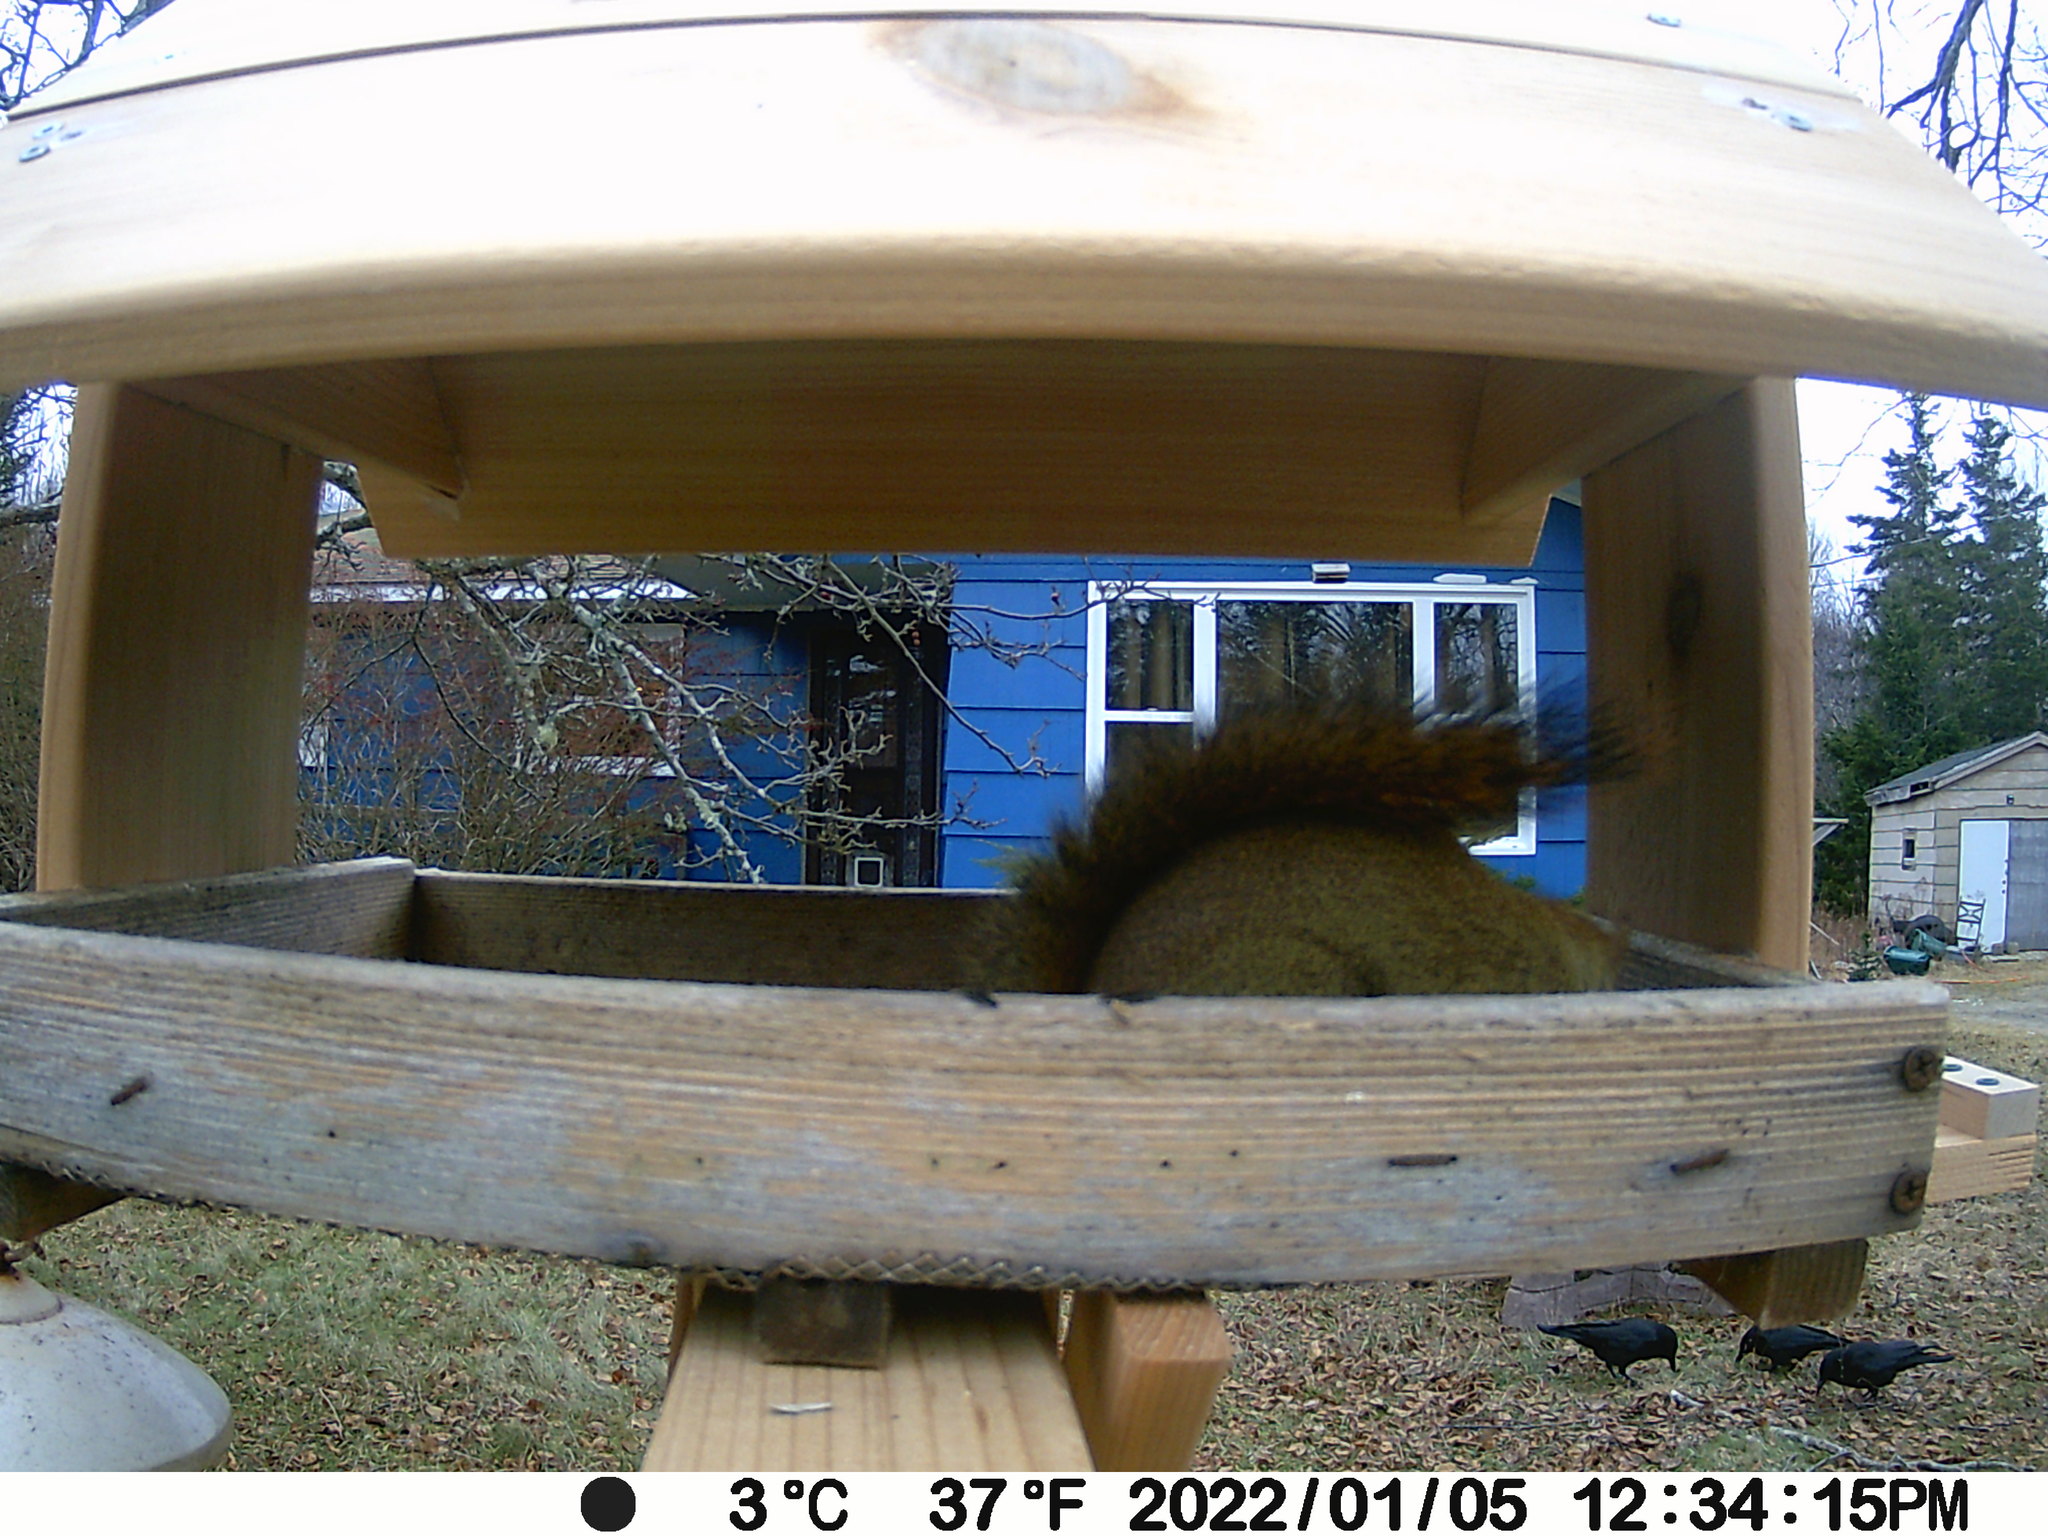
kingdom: Animalia
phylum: Chordata
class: Mammalia
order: Rodentia
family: Sciuridae
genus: Tamiasciurus
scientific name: Tamiasciurus hudsonicus
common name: Red squirrel
